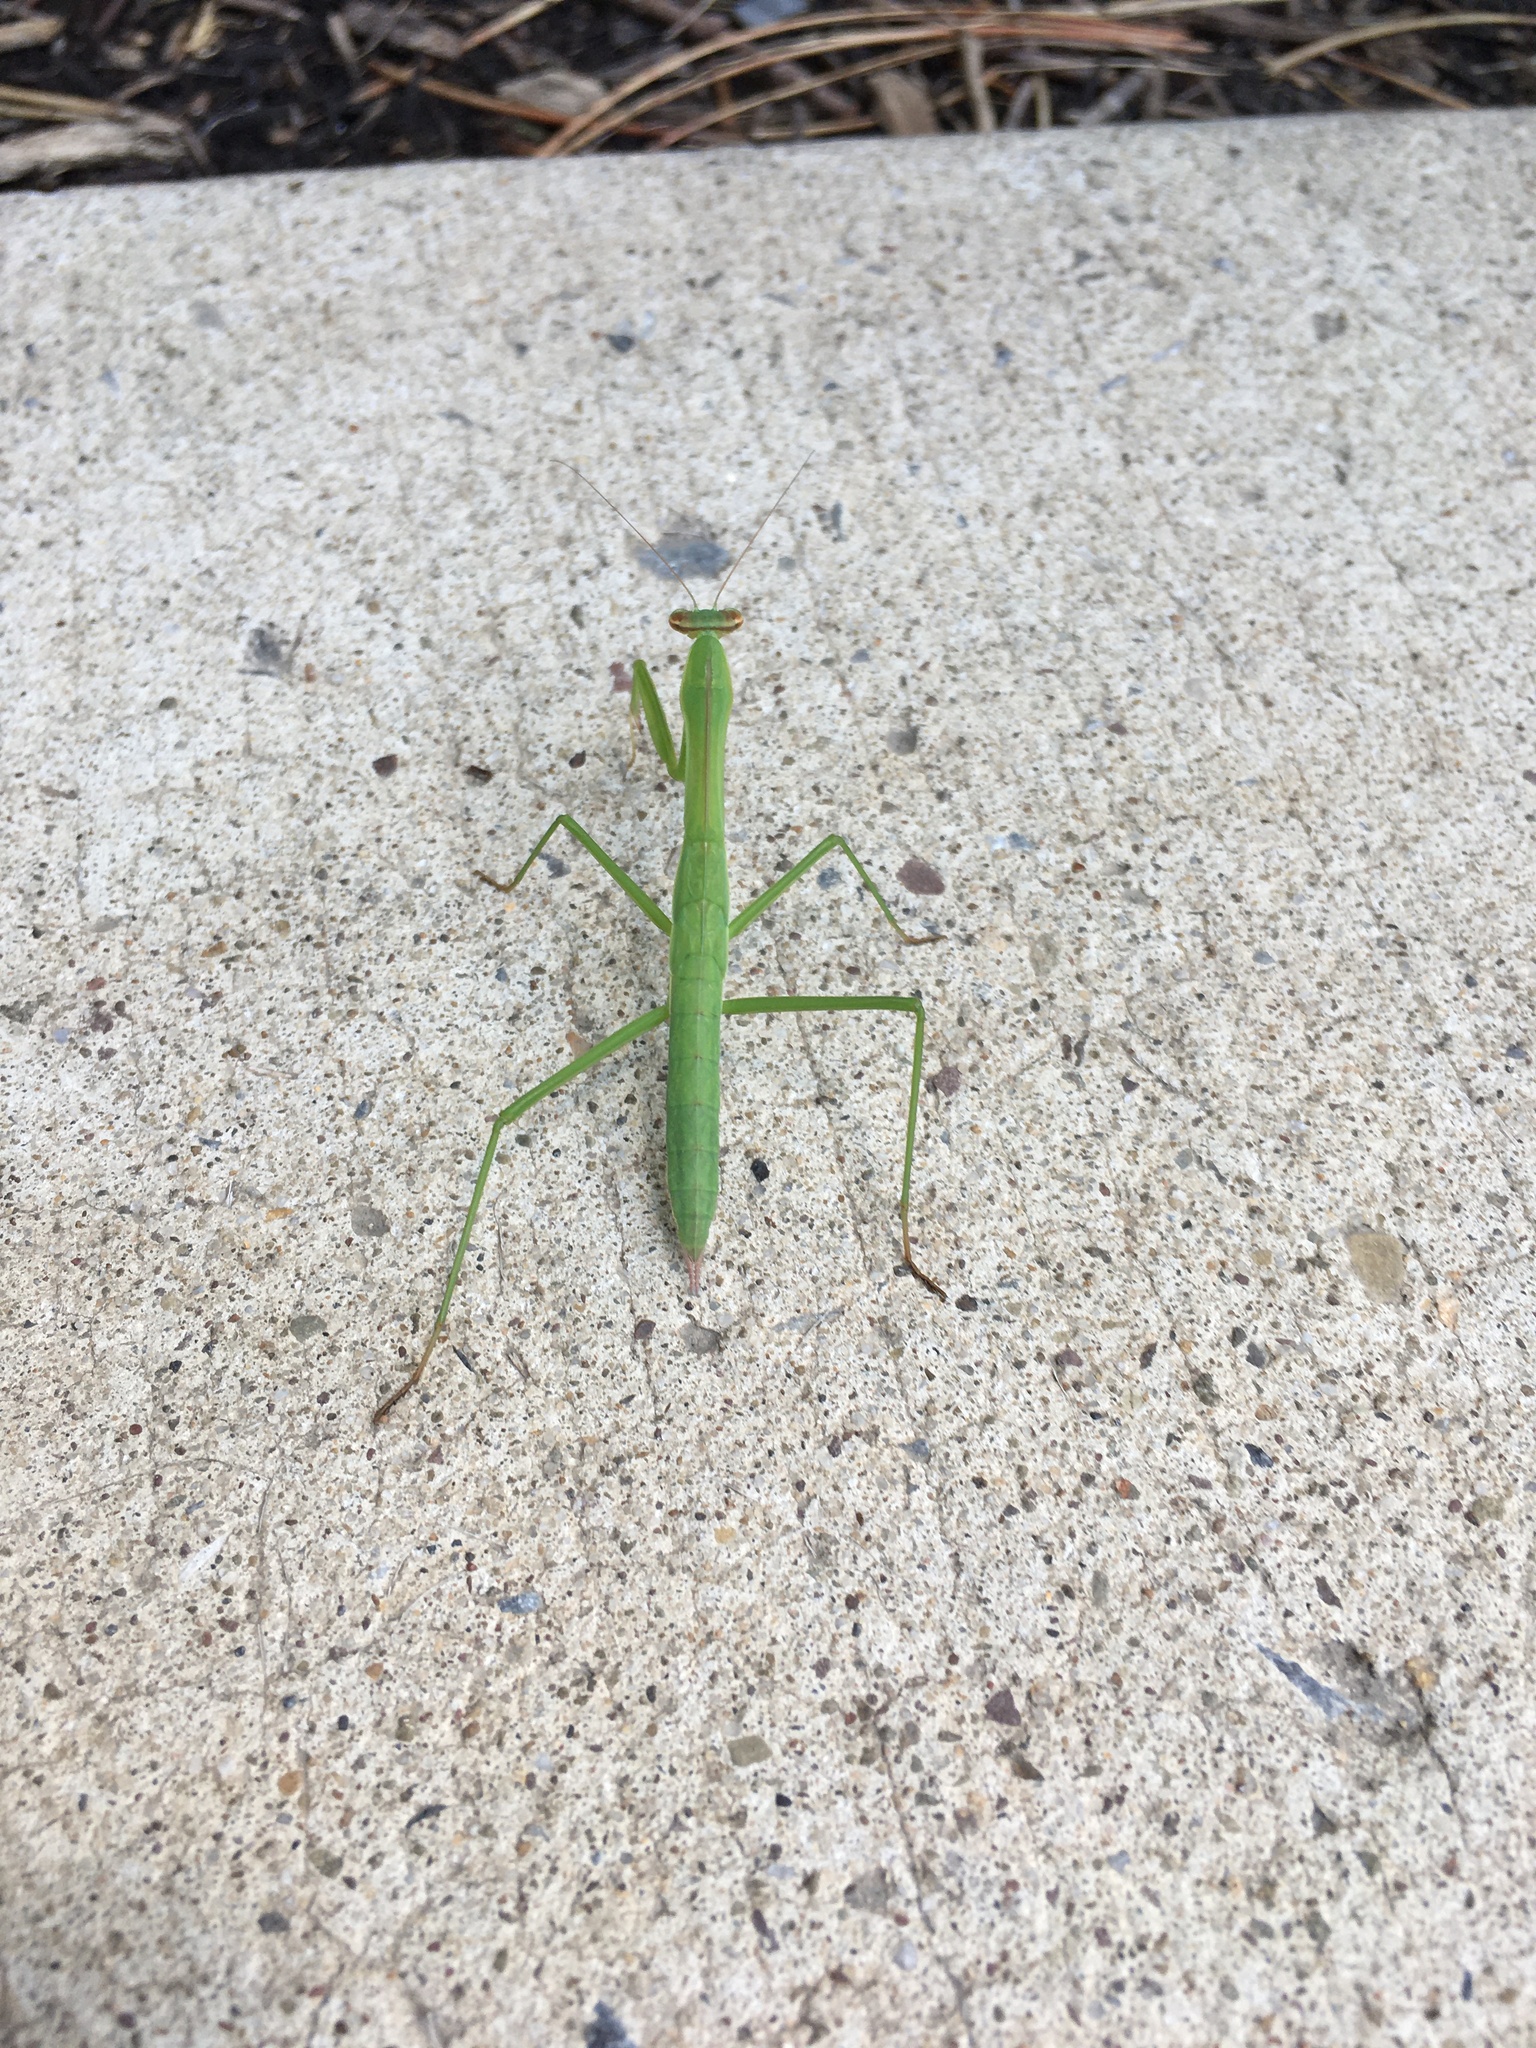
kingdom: Animalia
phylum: Arthropoda
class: Insecta
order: Mantodea
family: Mantidae
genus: Tenodera
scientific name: Tenodera sinensis
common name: Chinese mantis
